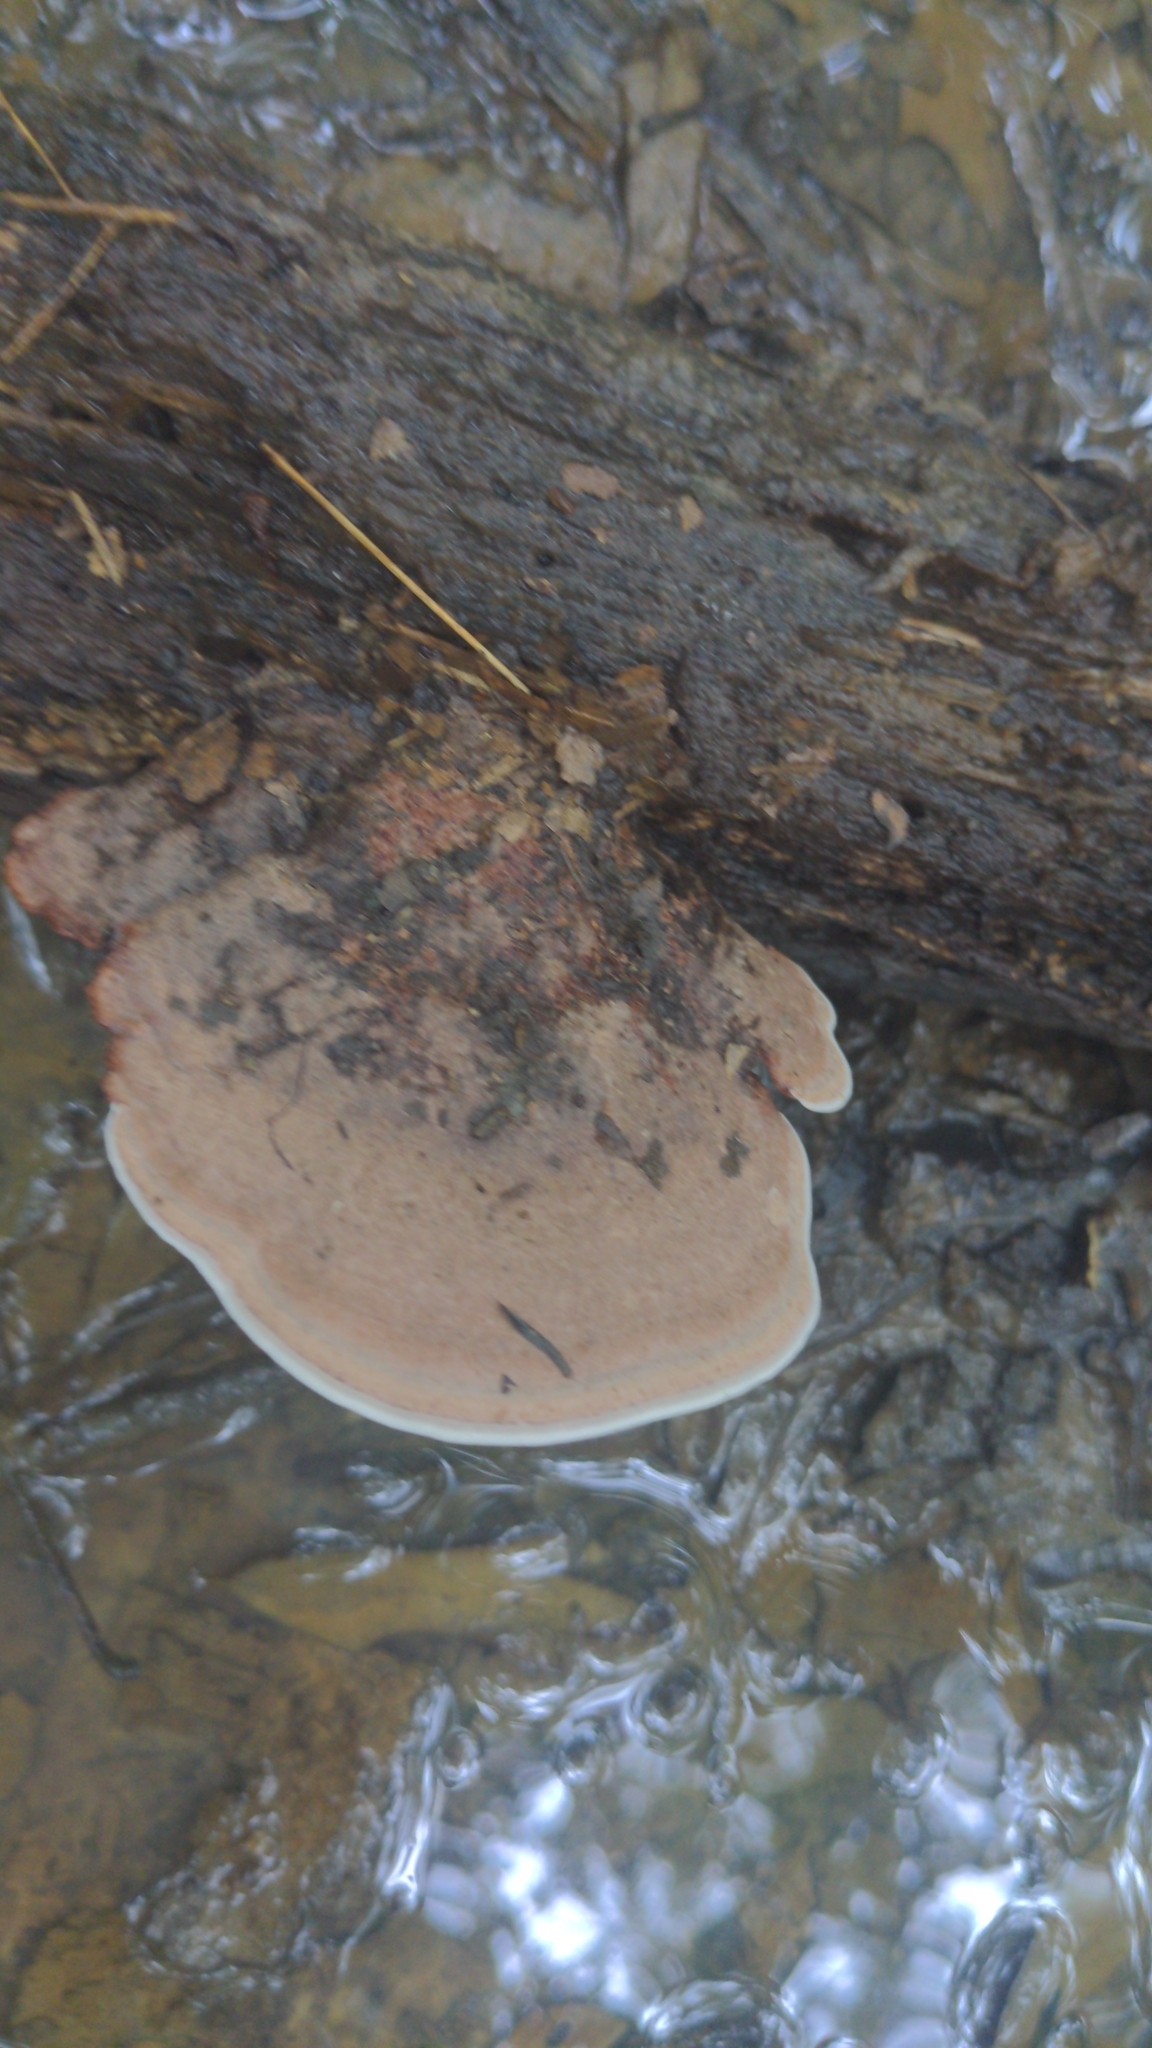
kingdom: Fungi
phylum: Basidiomycota
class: Agaricomycetes
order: Polyporales
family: Steccherinaceae
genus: Nigroporus
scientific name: Nigroporus vinosus
